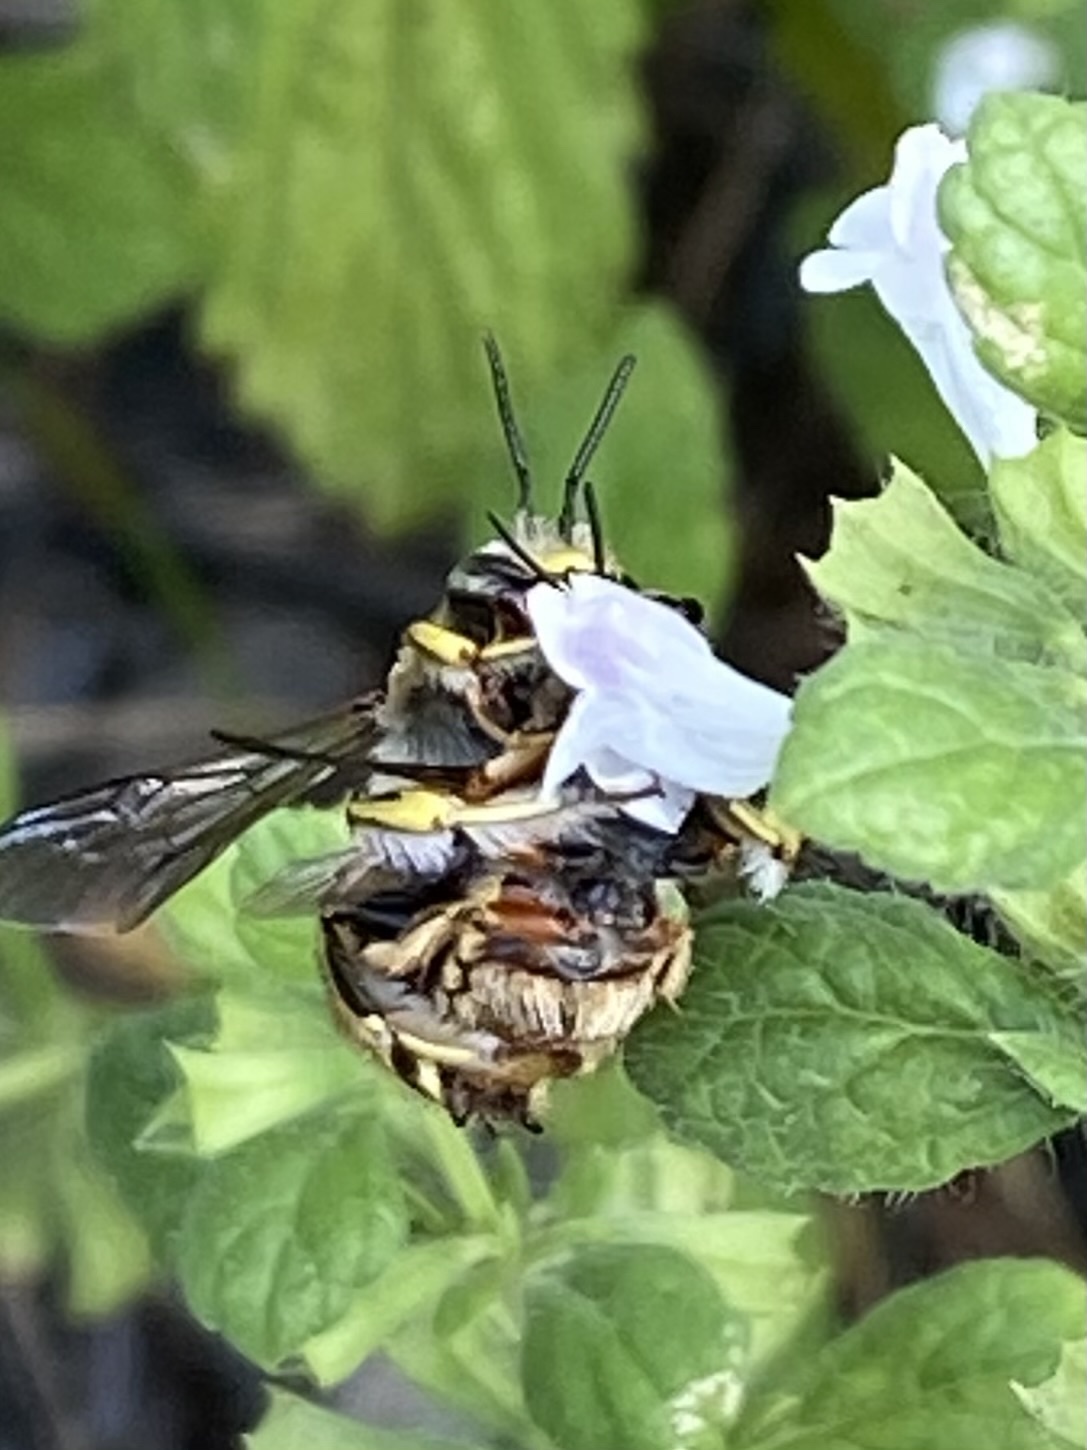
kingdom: Animalia
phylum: Arthropoda
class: Insecta
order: Hymenoptera
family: Megachilidae
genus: Anthidium
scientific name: Anthidium manicatum
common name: Wool carder bee
